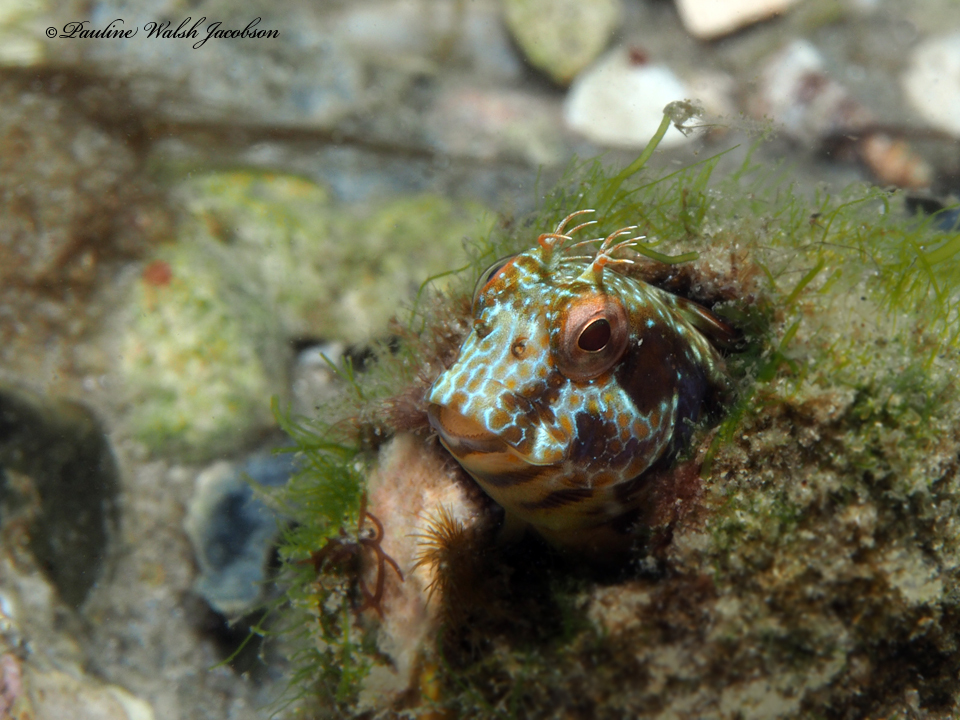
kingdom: Animalia
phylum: Chordata
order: Perciformes
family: Blenniidae
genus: Parablennius
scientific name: Parablennius marmoreus
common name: Seaweed blenny
